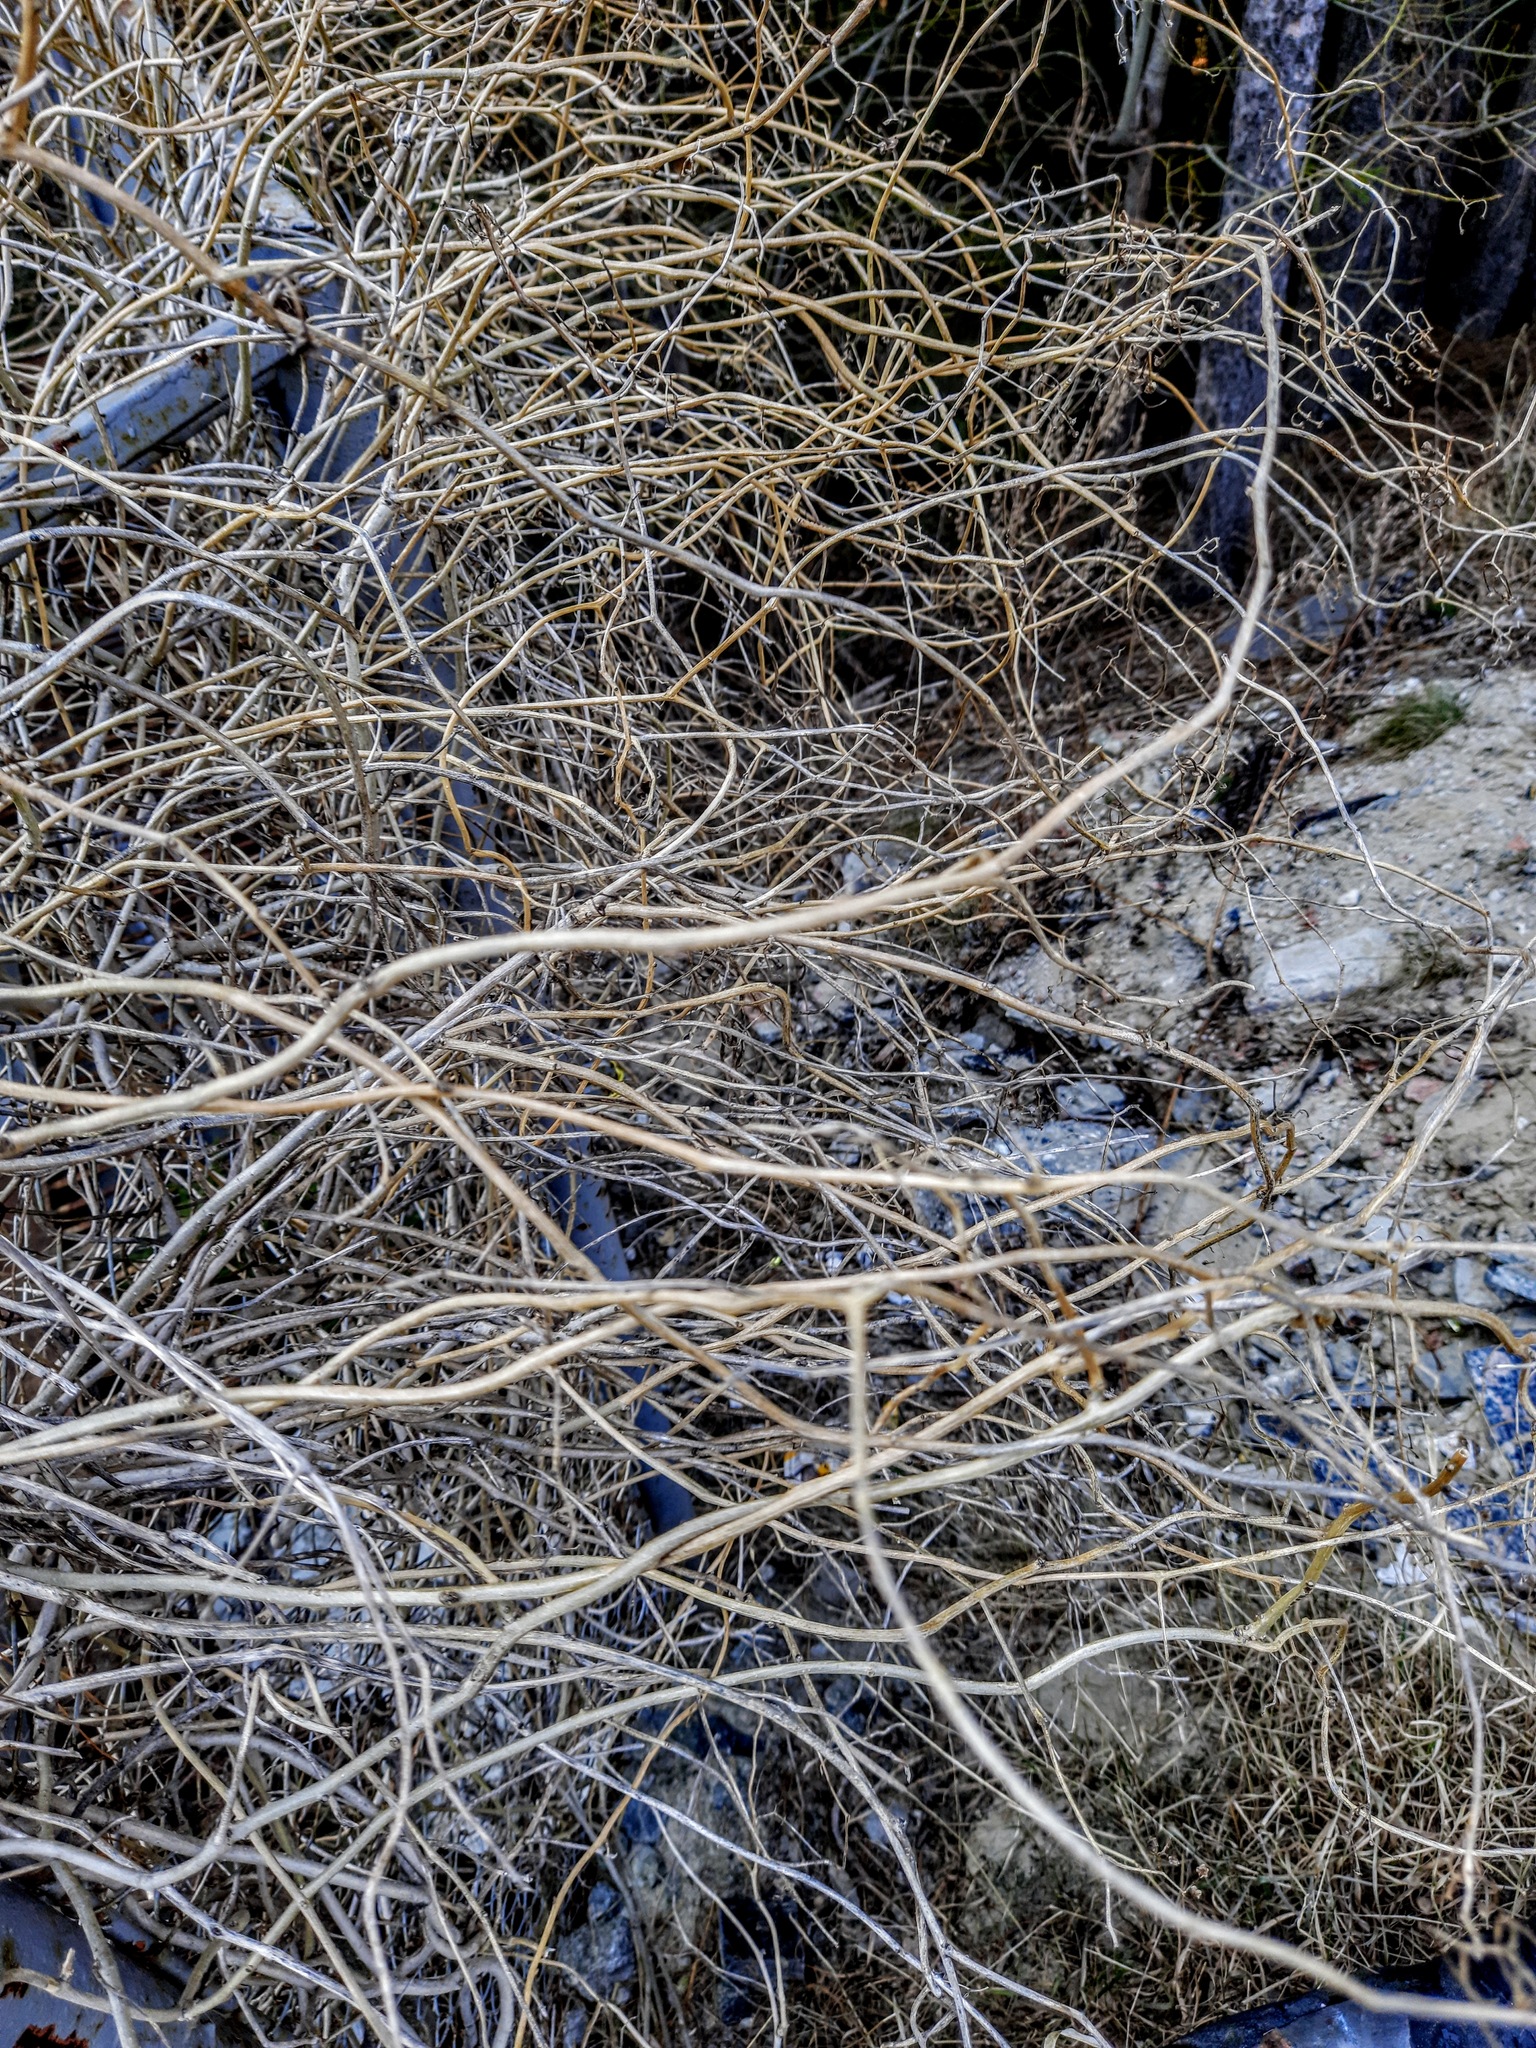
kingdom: Plantae
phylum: Tracheophyta
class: Magnoliopsida
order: Solanales
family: Solanaceae
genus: Solanum
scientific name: Solanum dulcamara
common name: Climbing nightshade
